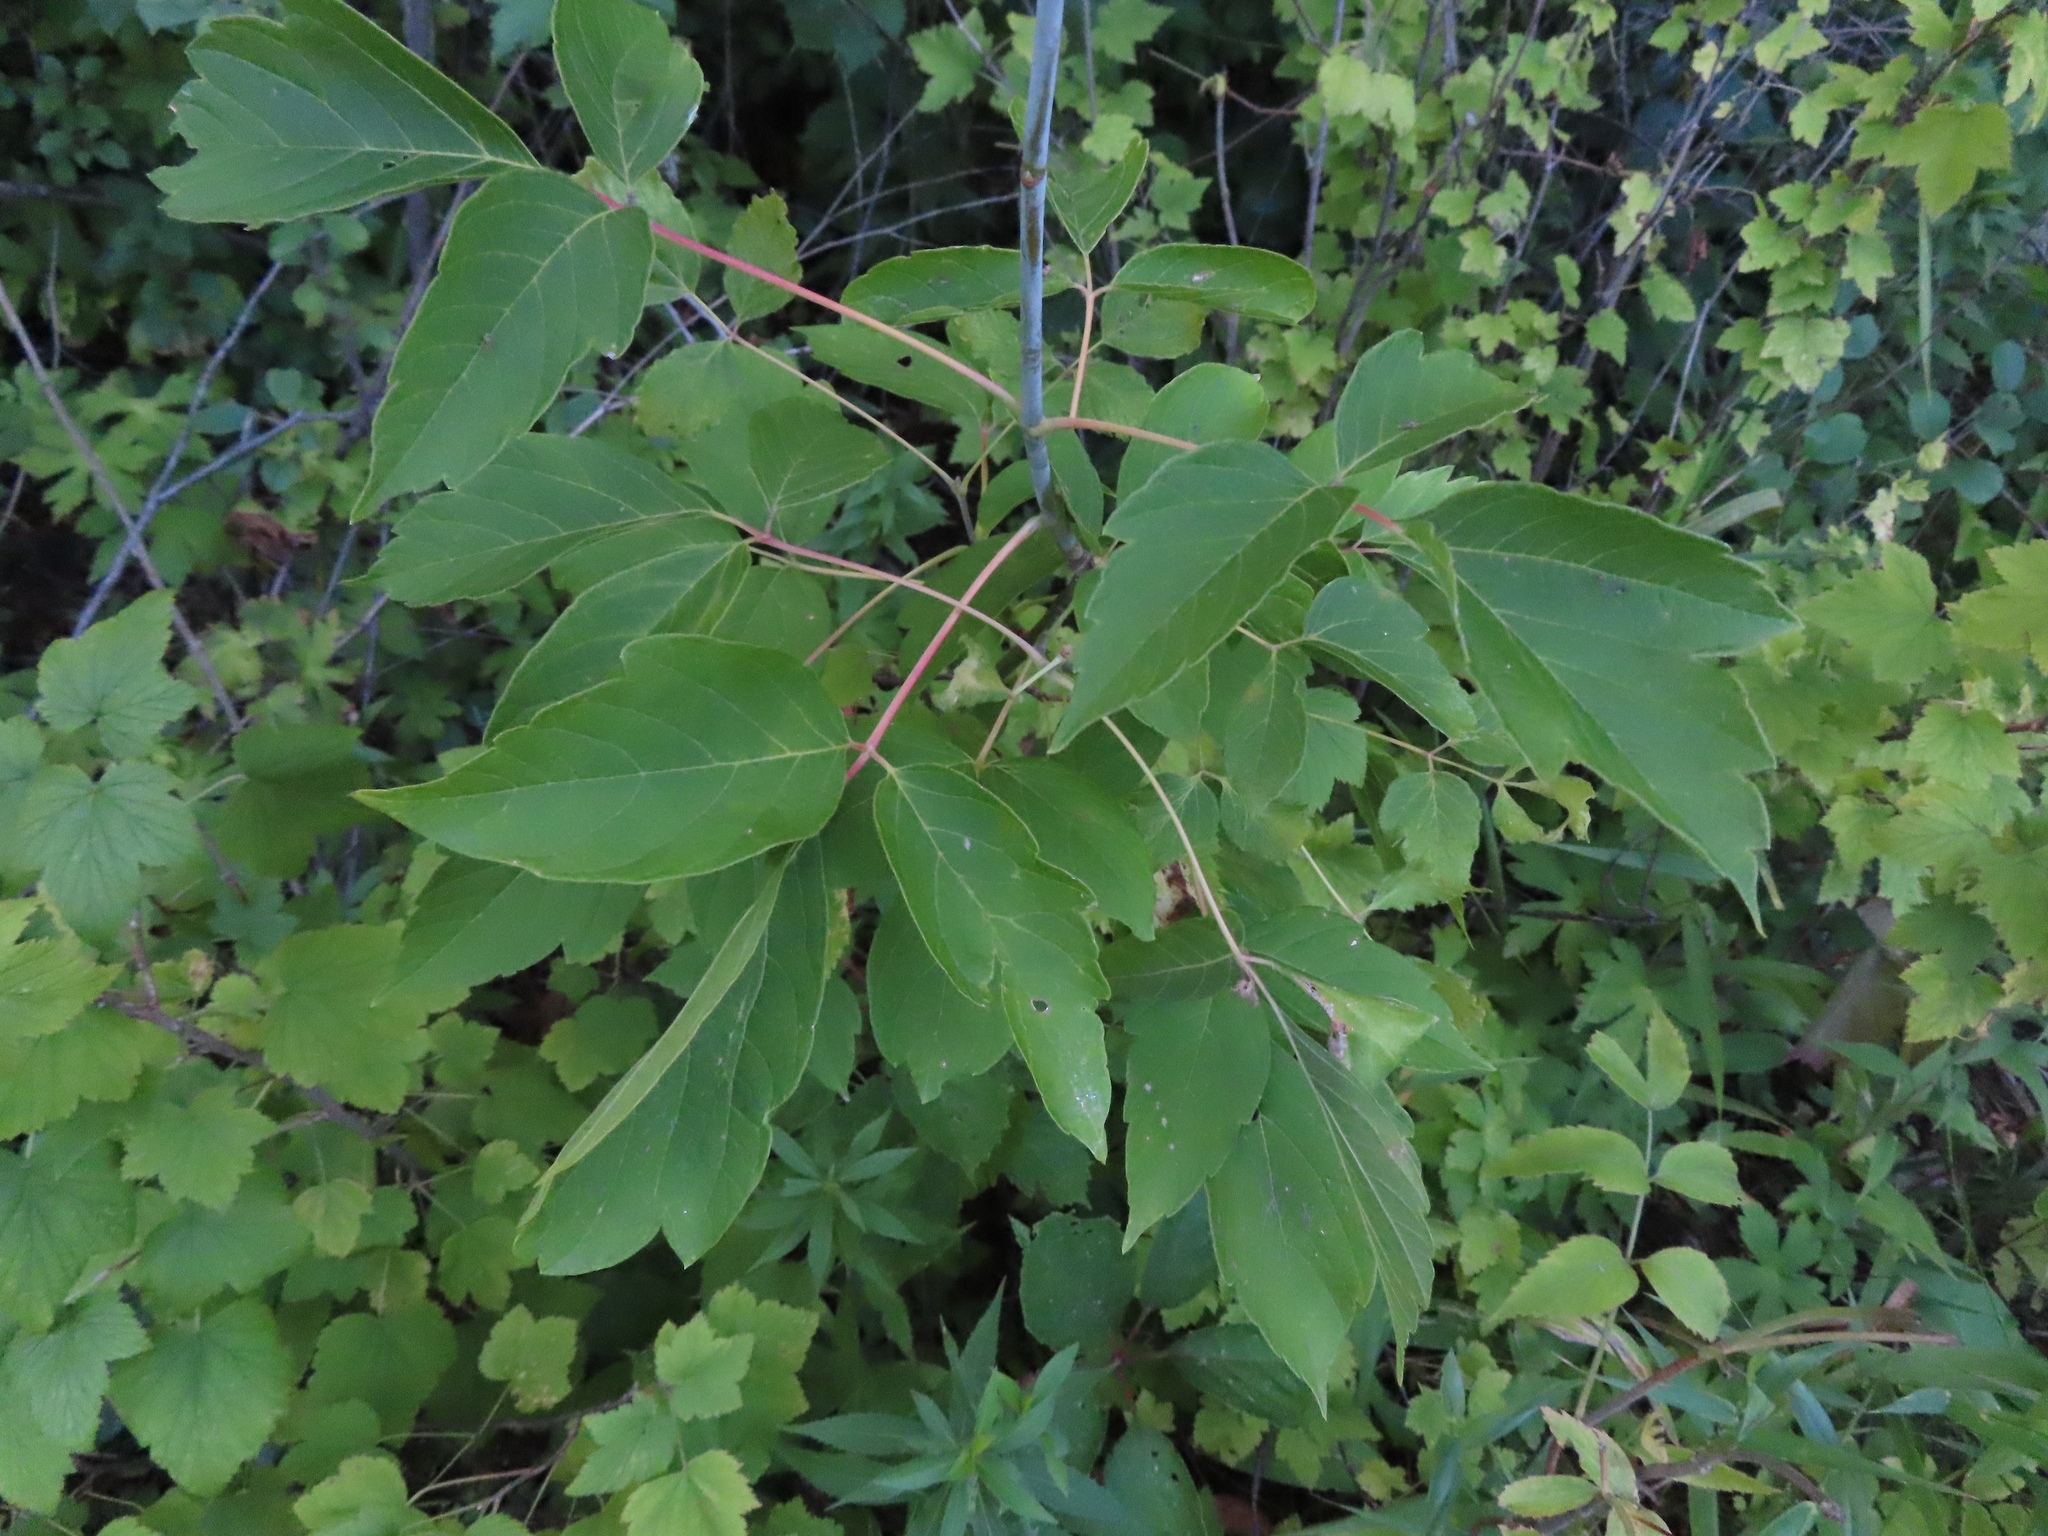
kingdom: Plantae
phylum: Tracheophyta
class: Magnoliopsida
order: Sapindales
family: Sapindaceae
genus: Acer
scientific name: Acer negundo
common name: Ashleaf maple
